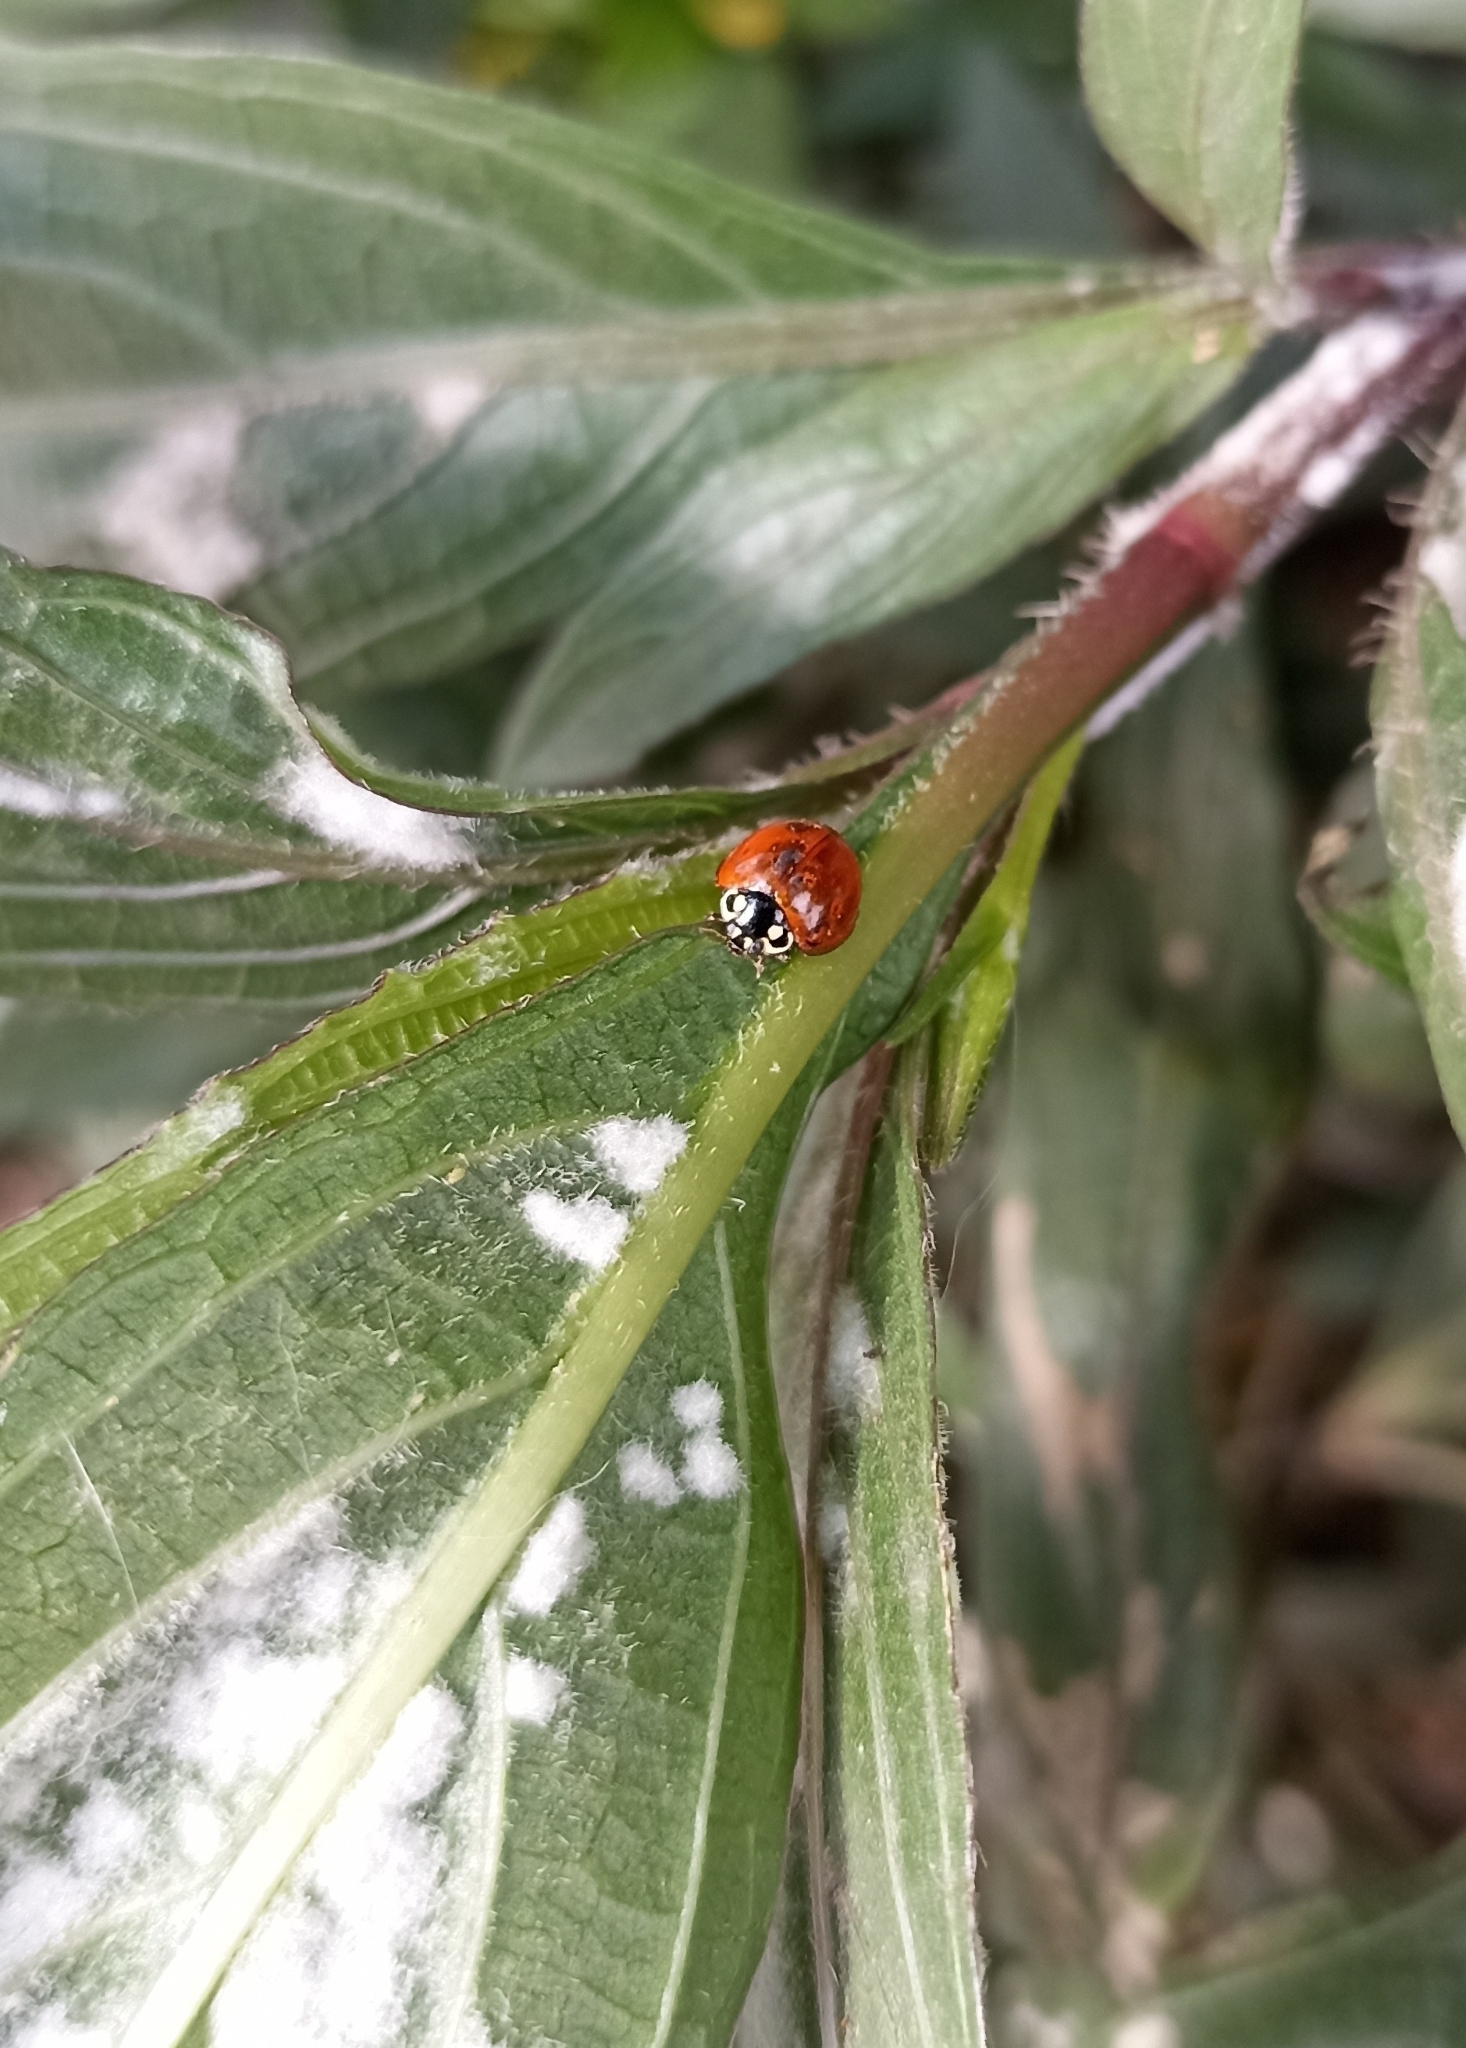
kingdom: Animalia
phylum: Arthropoda
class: Insecta
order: Coleoptera
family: Coccinellidae
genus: Cycloneda
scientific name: Cycloneda sanguinea
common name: Ladybird beetle
